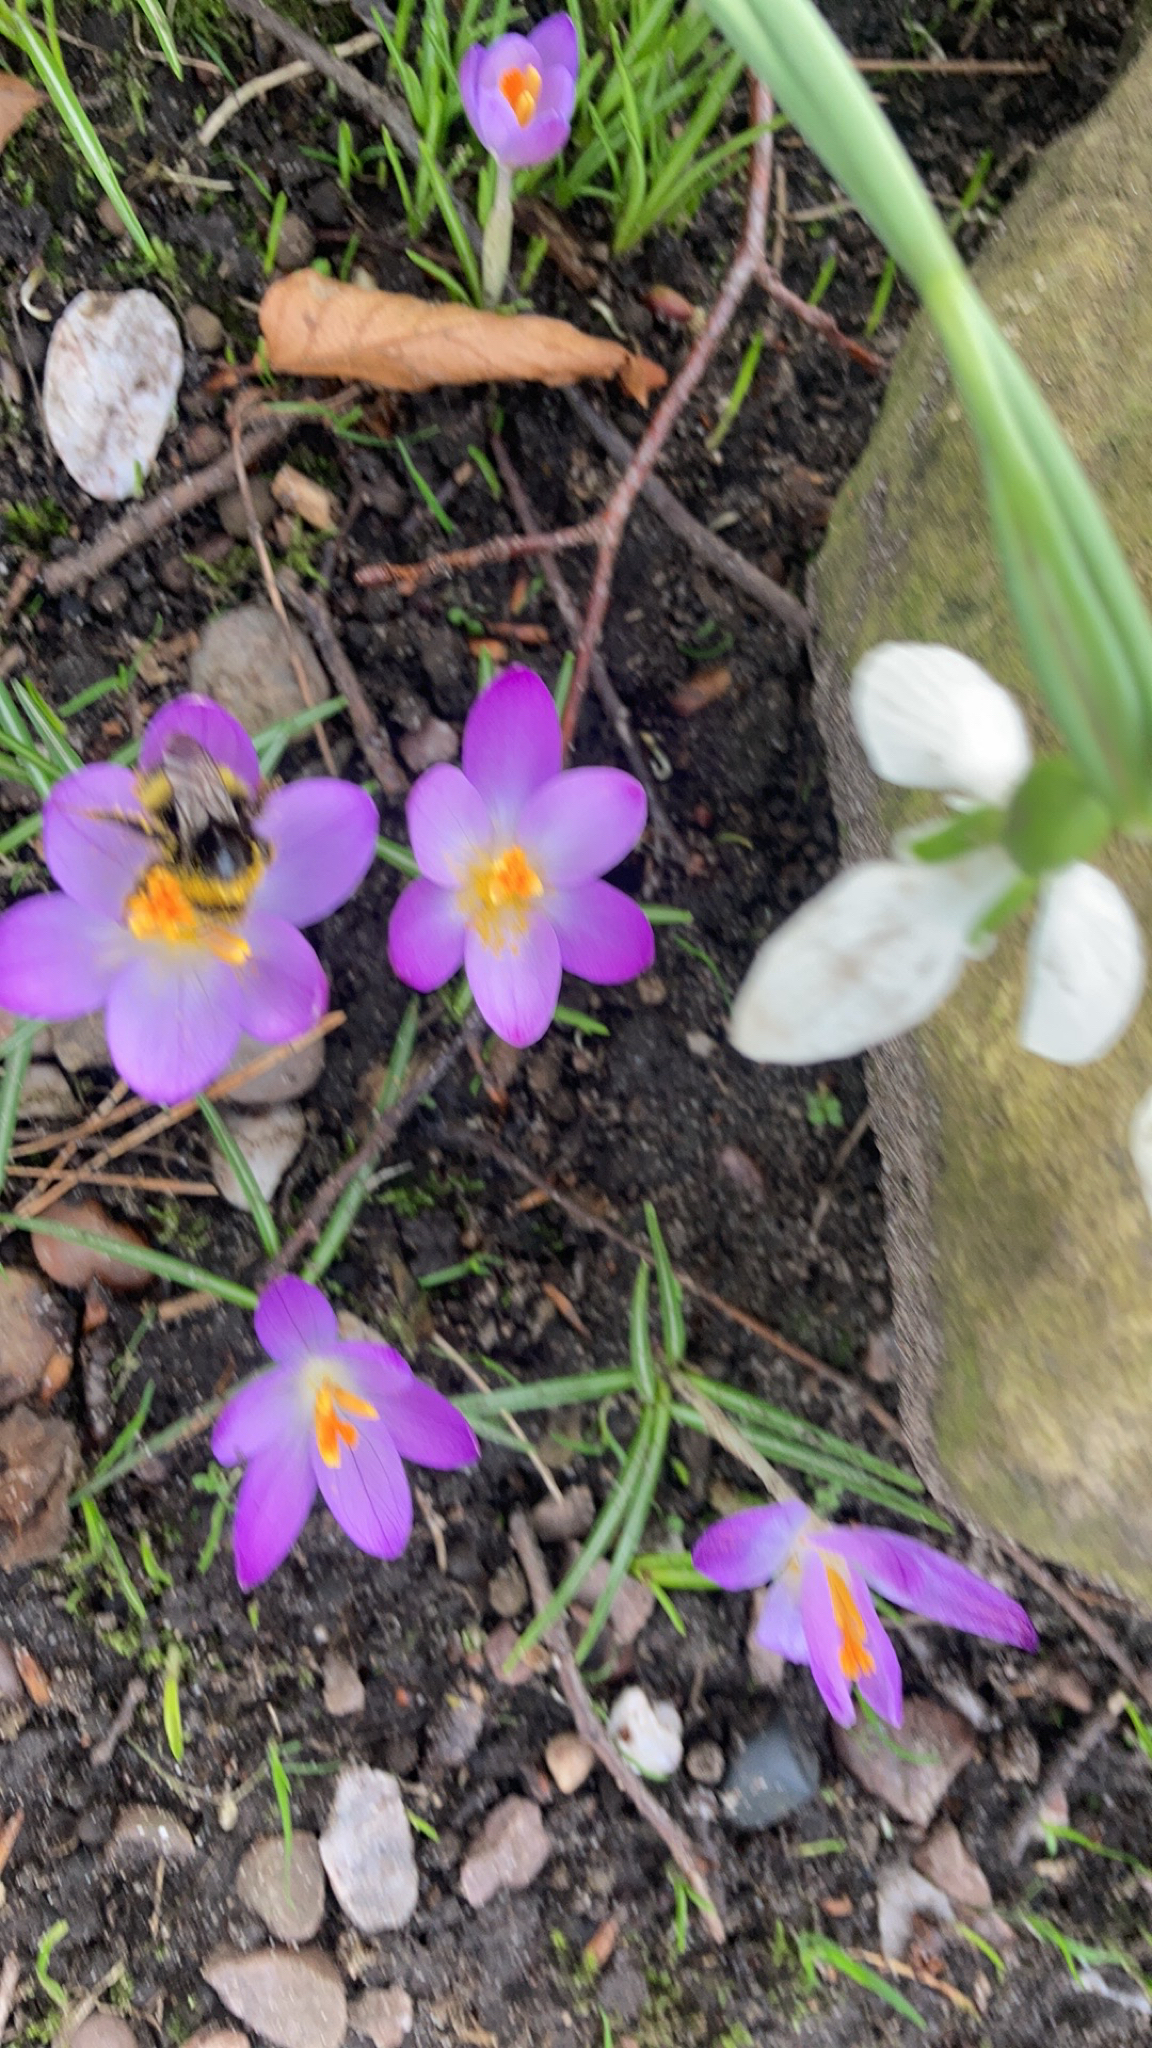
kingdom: Plantae
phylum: Tracheophyta
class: Liliopsida
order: Asparagales
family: Iridaceae
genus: Crocus
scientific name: Crocus tommasinianus
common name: Early crocus
